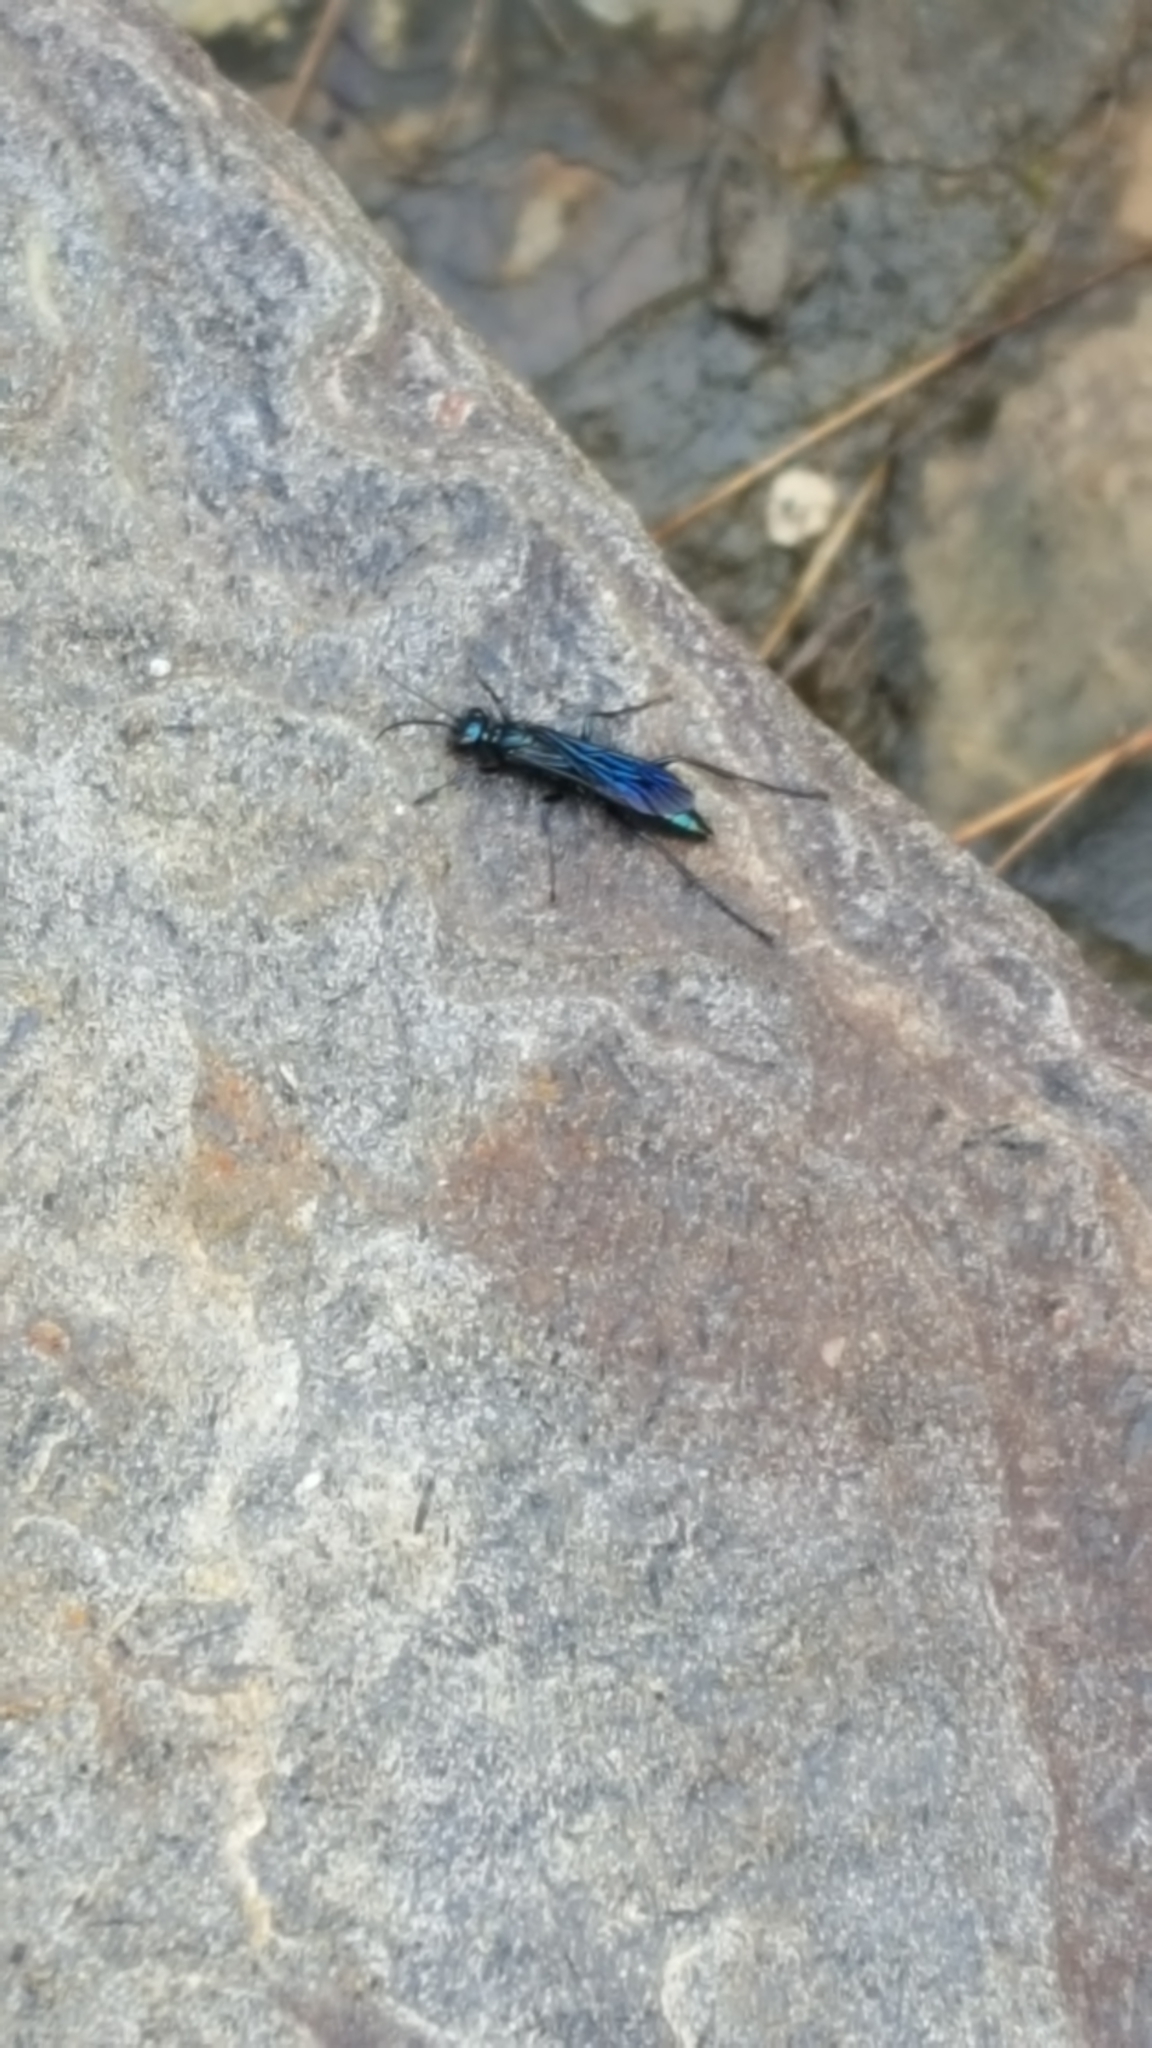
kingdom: Animalia
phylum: Arthropoda
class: Insecta
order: Hymenoptera
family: Sphecidae
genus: Chalybion
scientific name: Chalybion californicum
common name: Mud dauber
